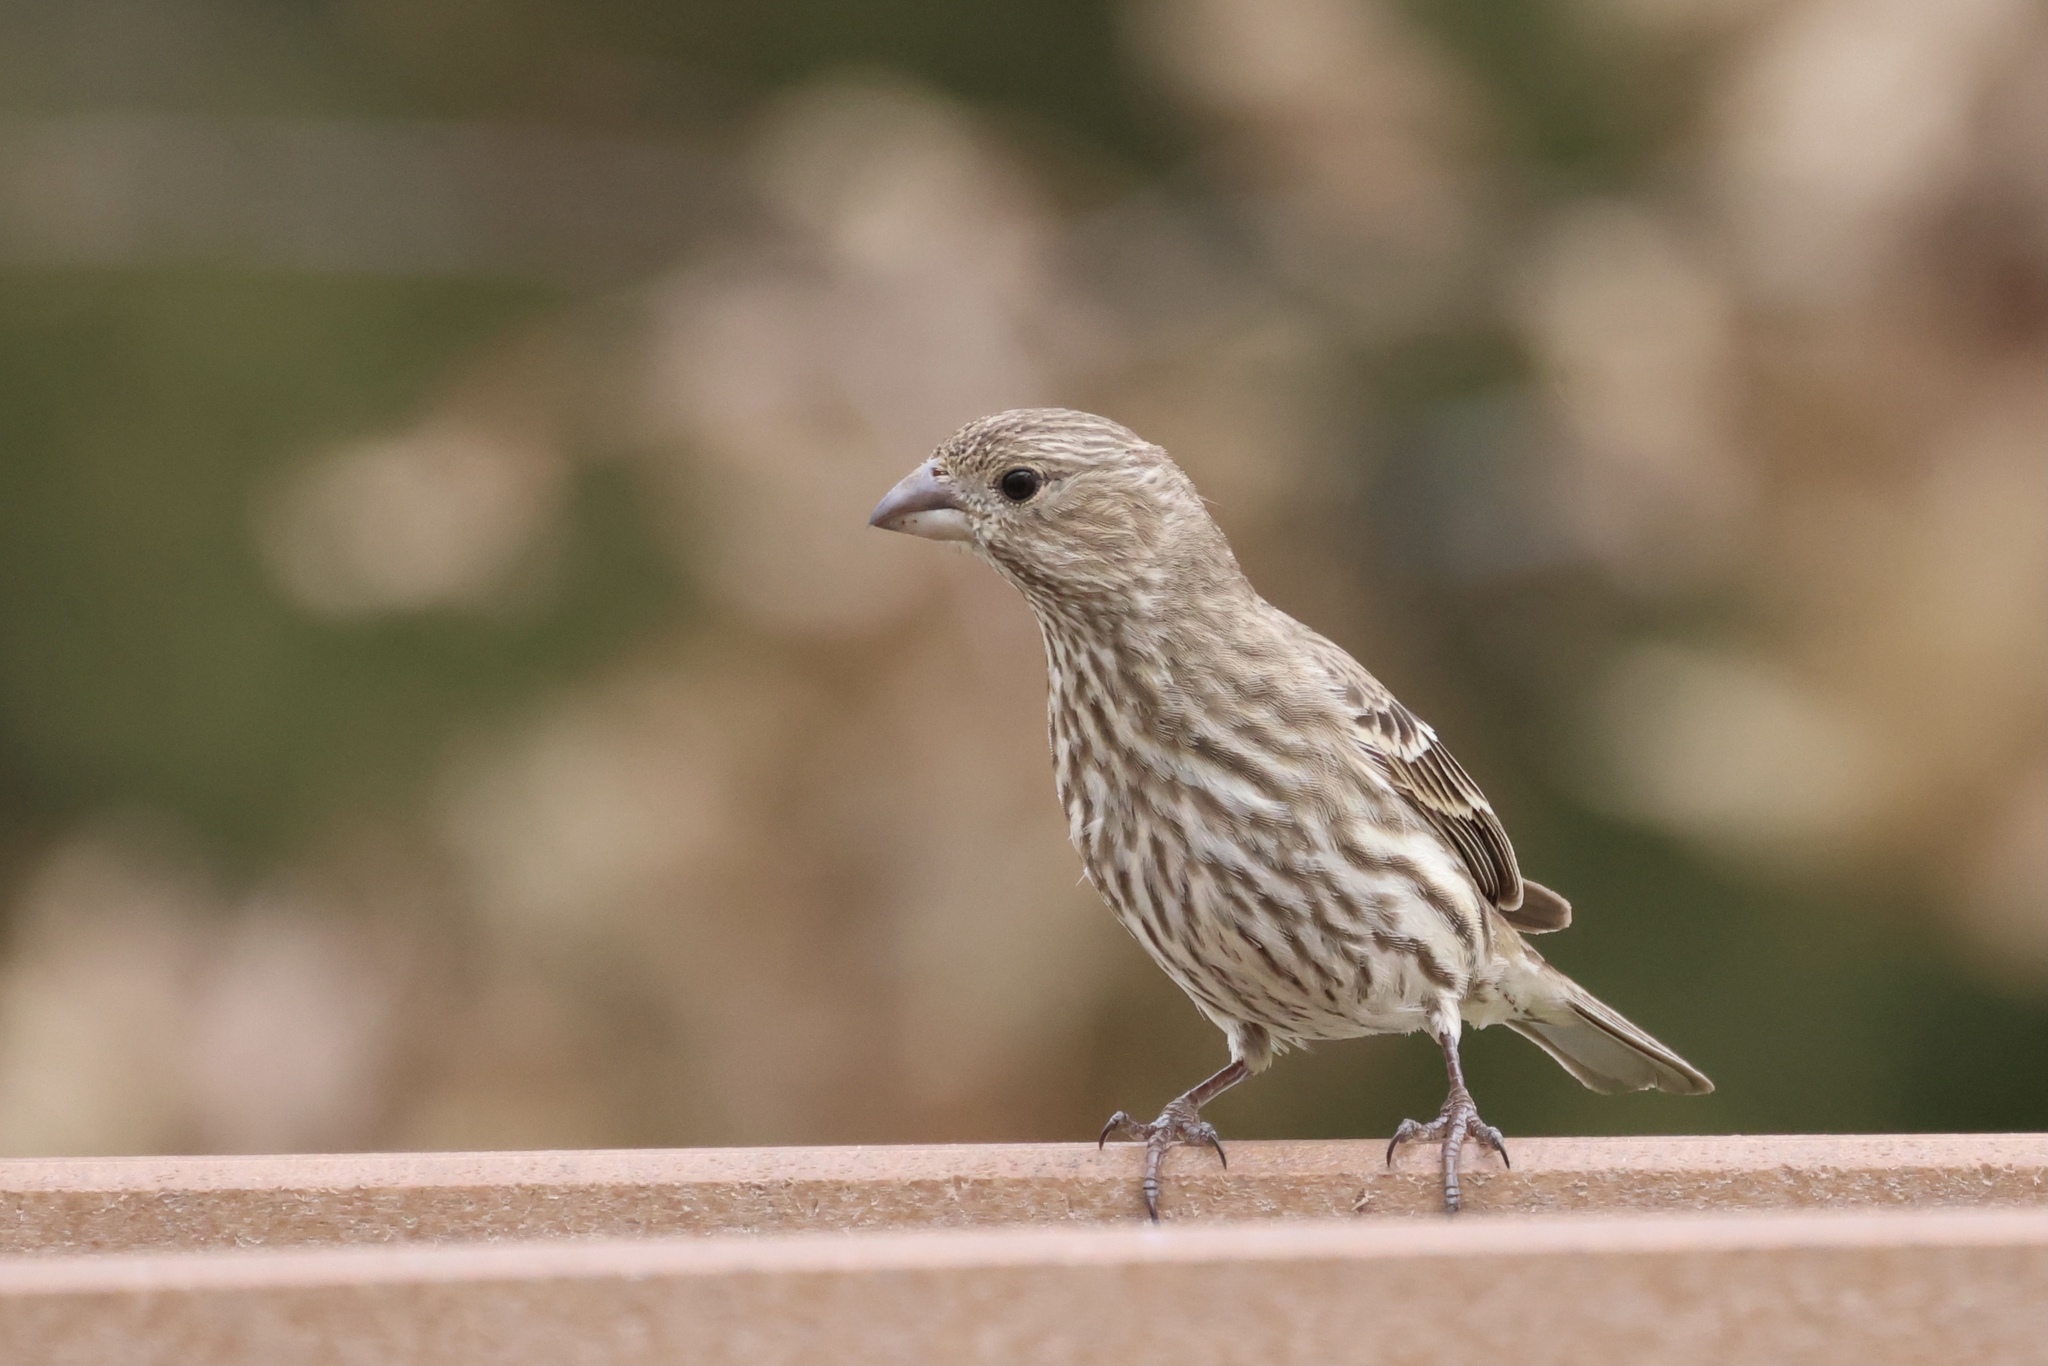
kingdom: Animalia
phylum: Chordata
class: Aves
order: Passeriformes
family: Fringillidae
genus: Haemorhous
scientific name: Haemorhous mexicanus
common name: House finch
